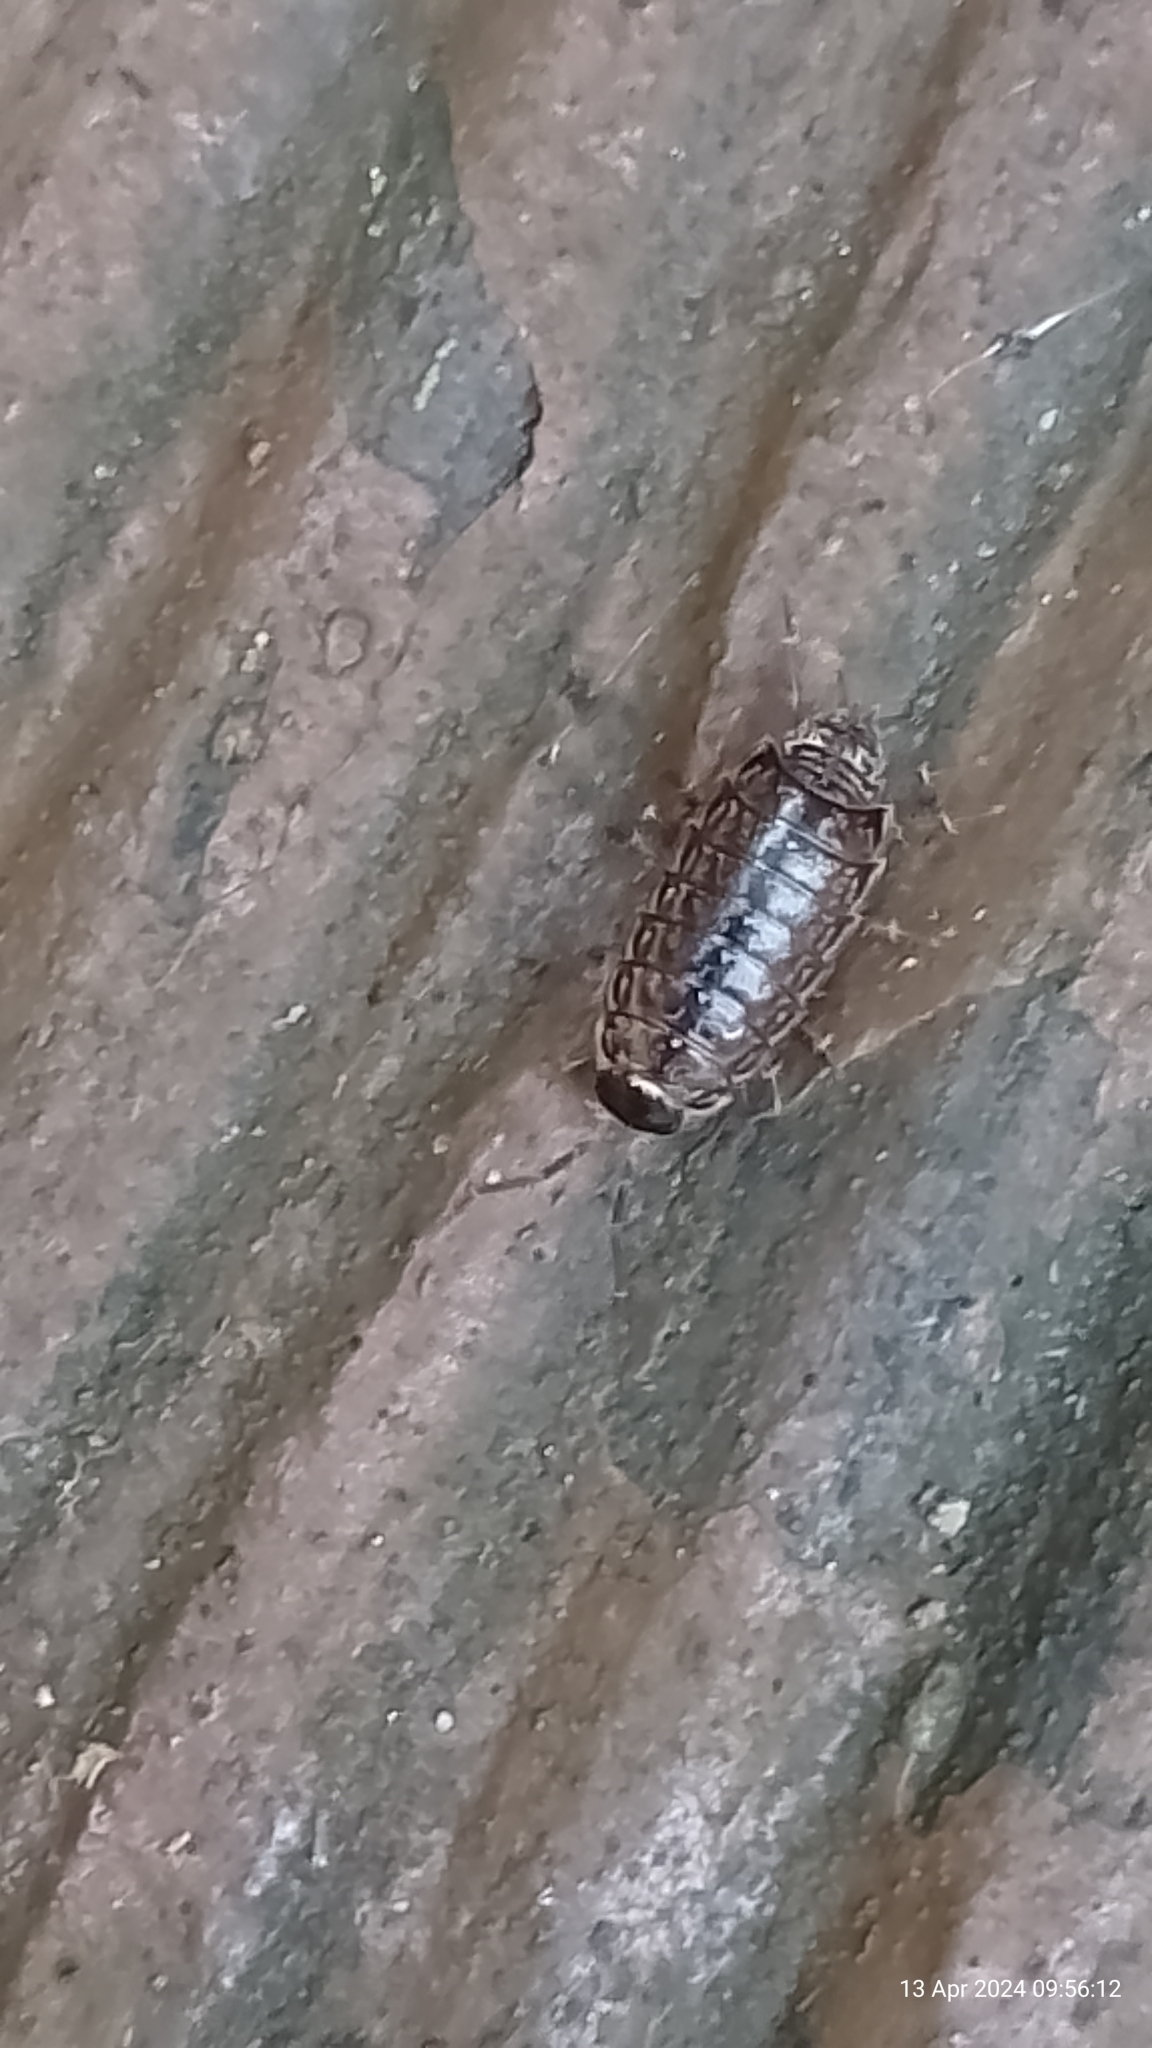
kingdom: Animalia
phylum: Arthropoda
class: Malacostraca
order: Isopoda
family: Philosciidae
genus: Philoscia
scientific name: Philoscia muscorum
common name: Common striped woodlouse
